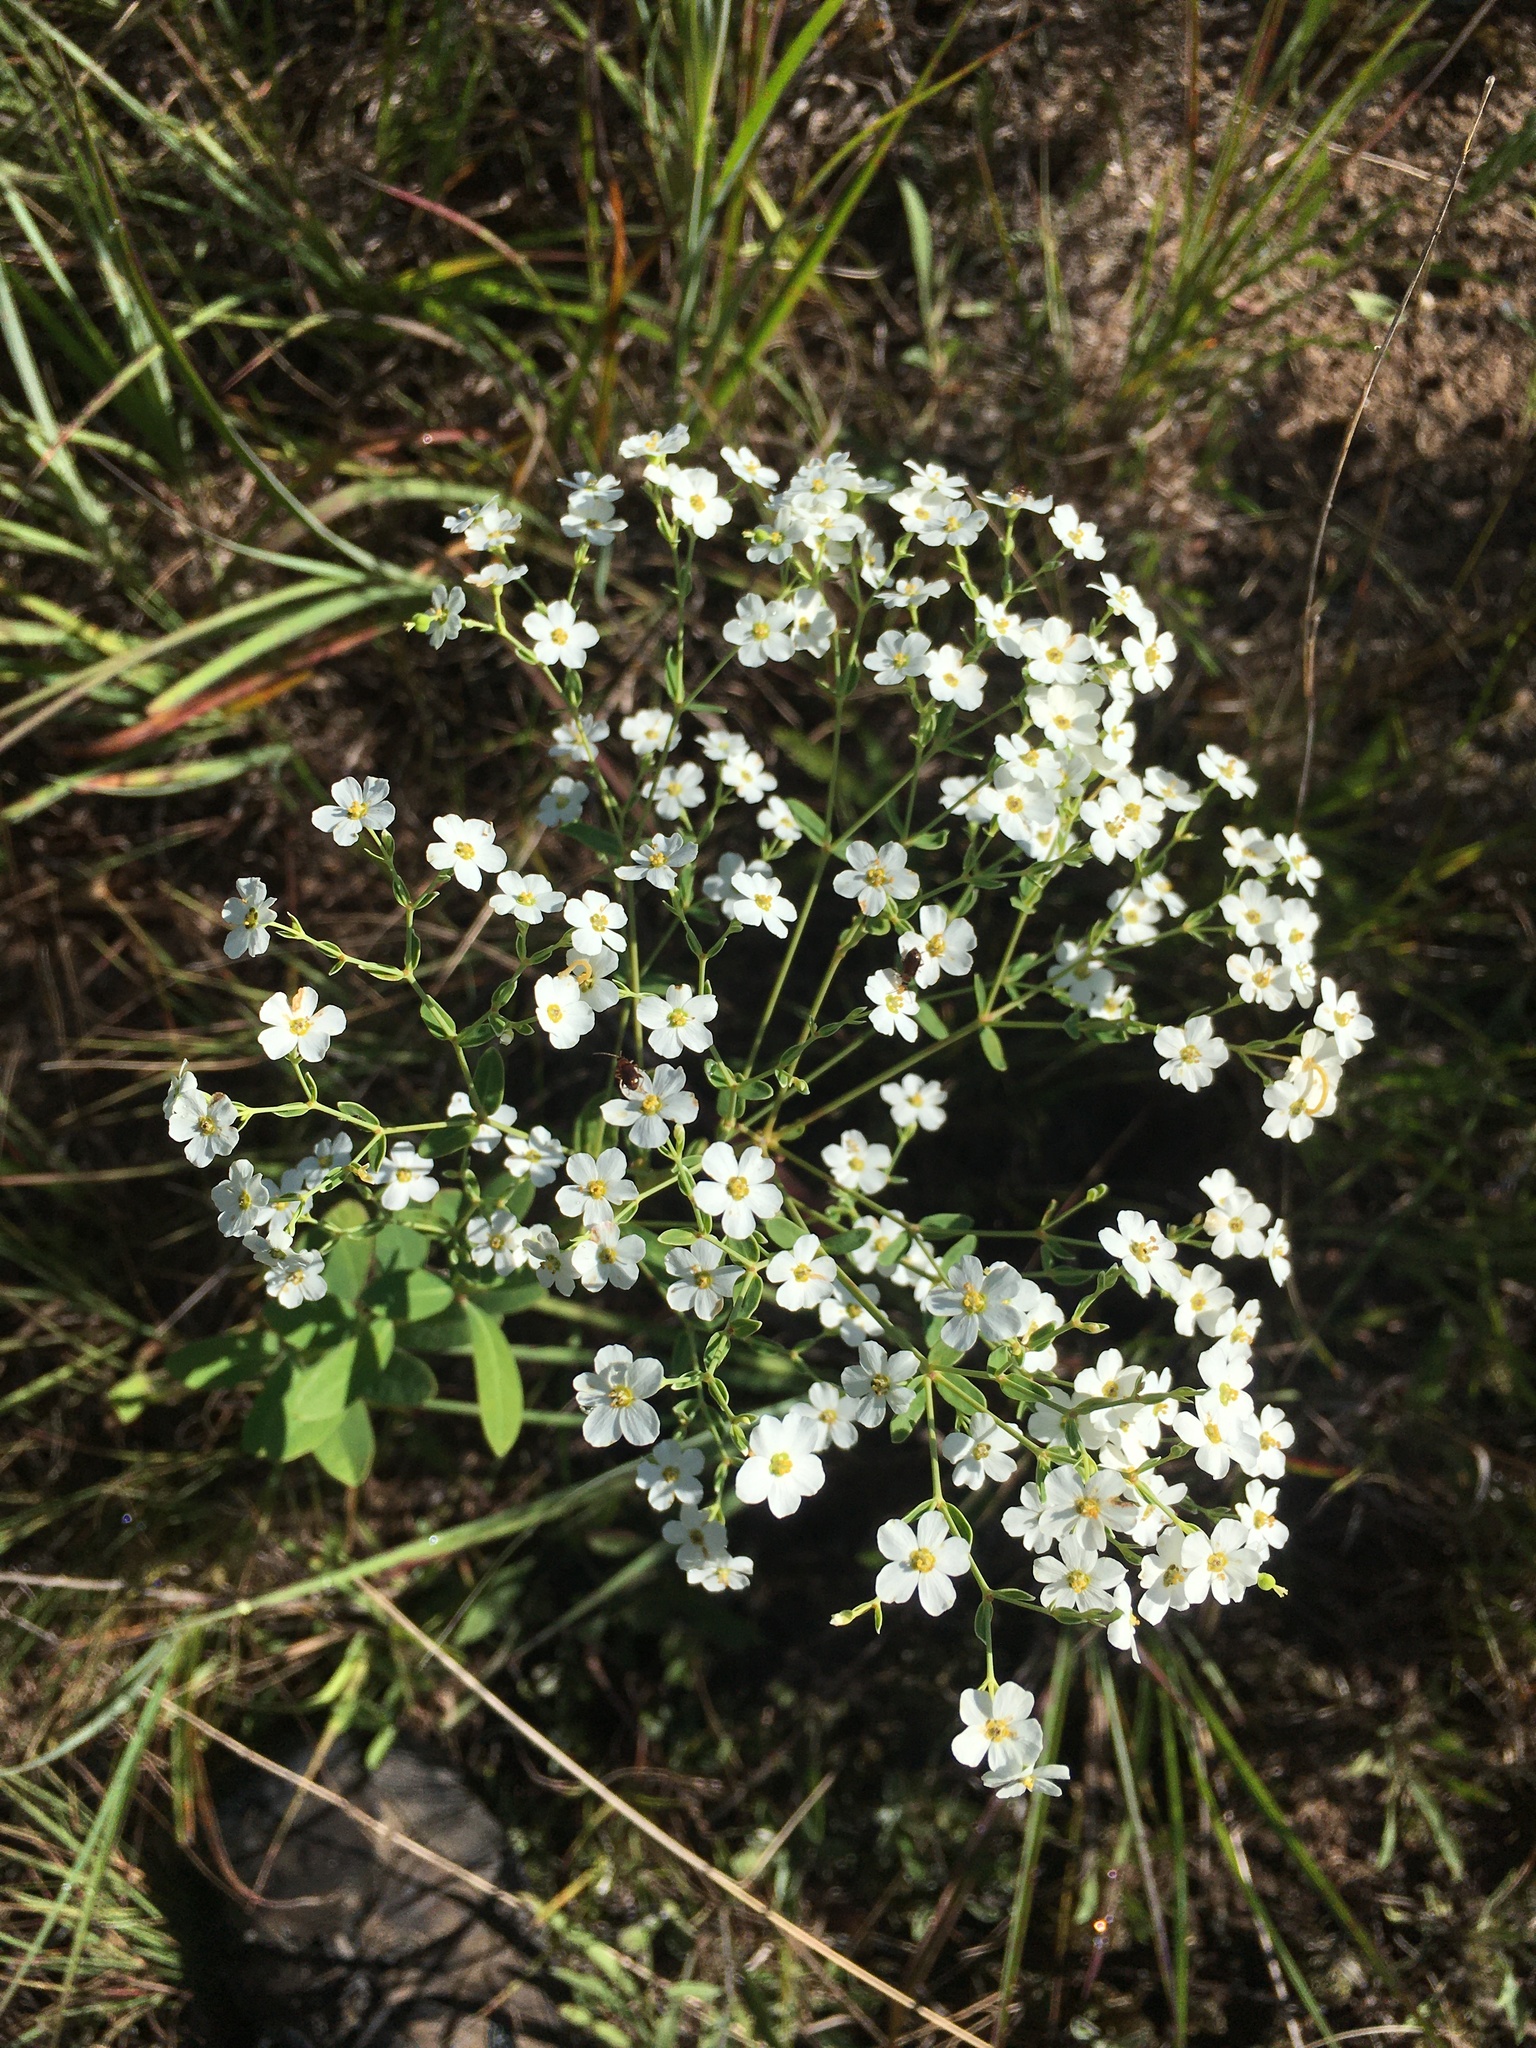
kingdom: Plantae
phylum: Tracheophyta
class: Magnoliopsida
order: Malpighiales
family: Euphorbiaceae
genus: Euphorbia
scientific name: Euphorbia corollata
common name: Flowering spurge
